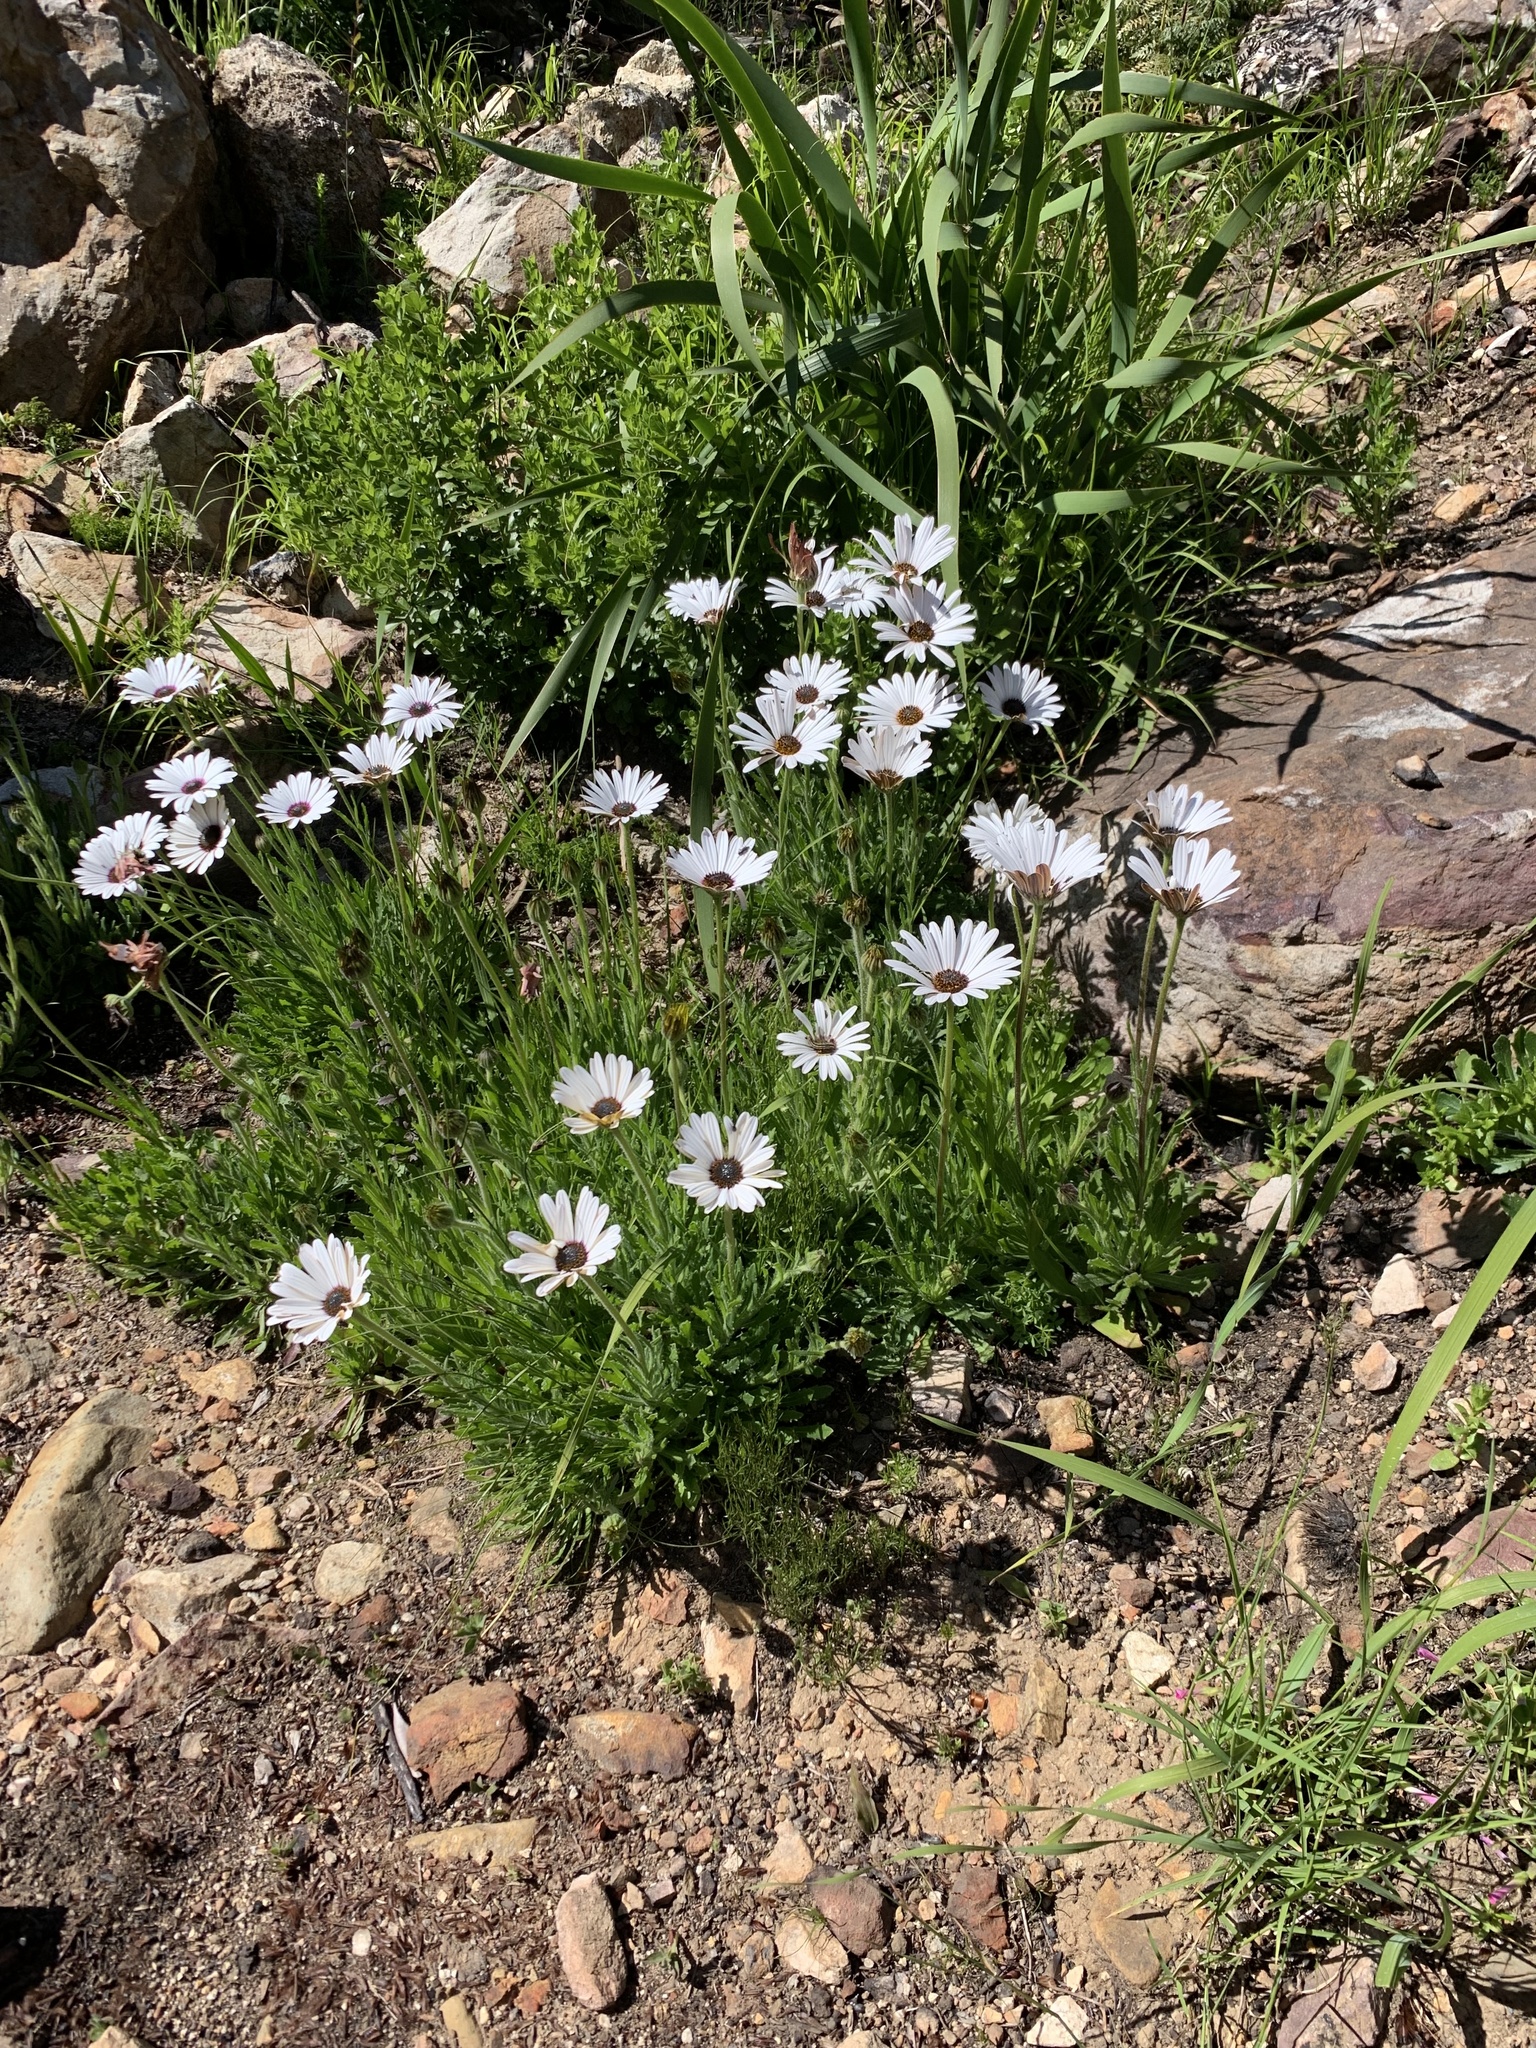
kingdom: Plantae
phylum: Tracheophyta
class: Magnoliopsida
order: Asterales
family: Asteraceae
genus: Dimorphotheca
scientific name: Dimorphotheca nudicaulis
